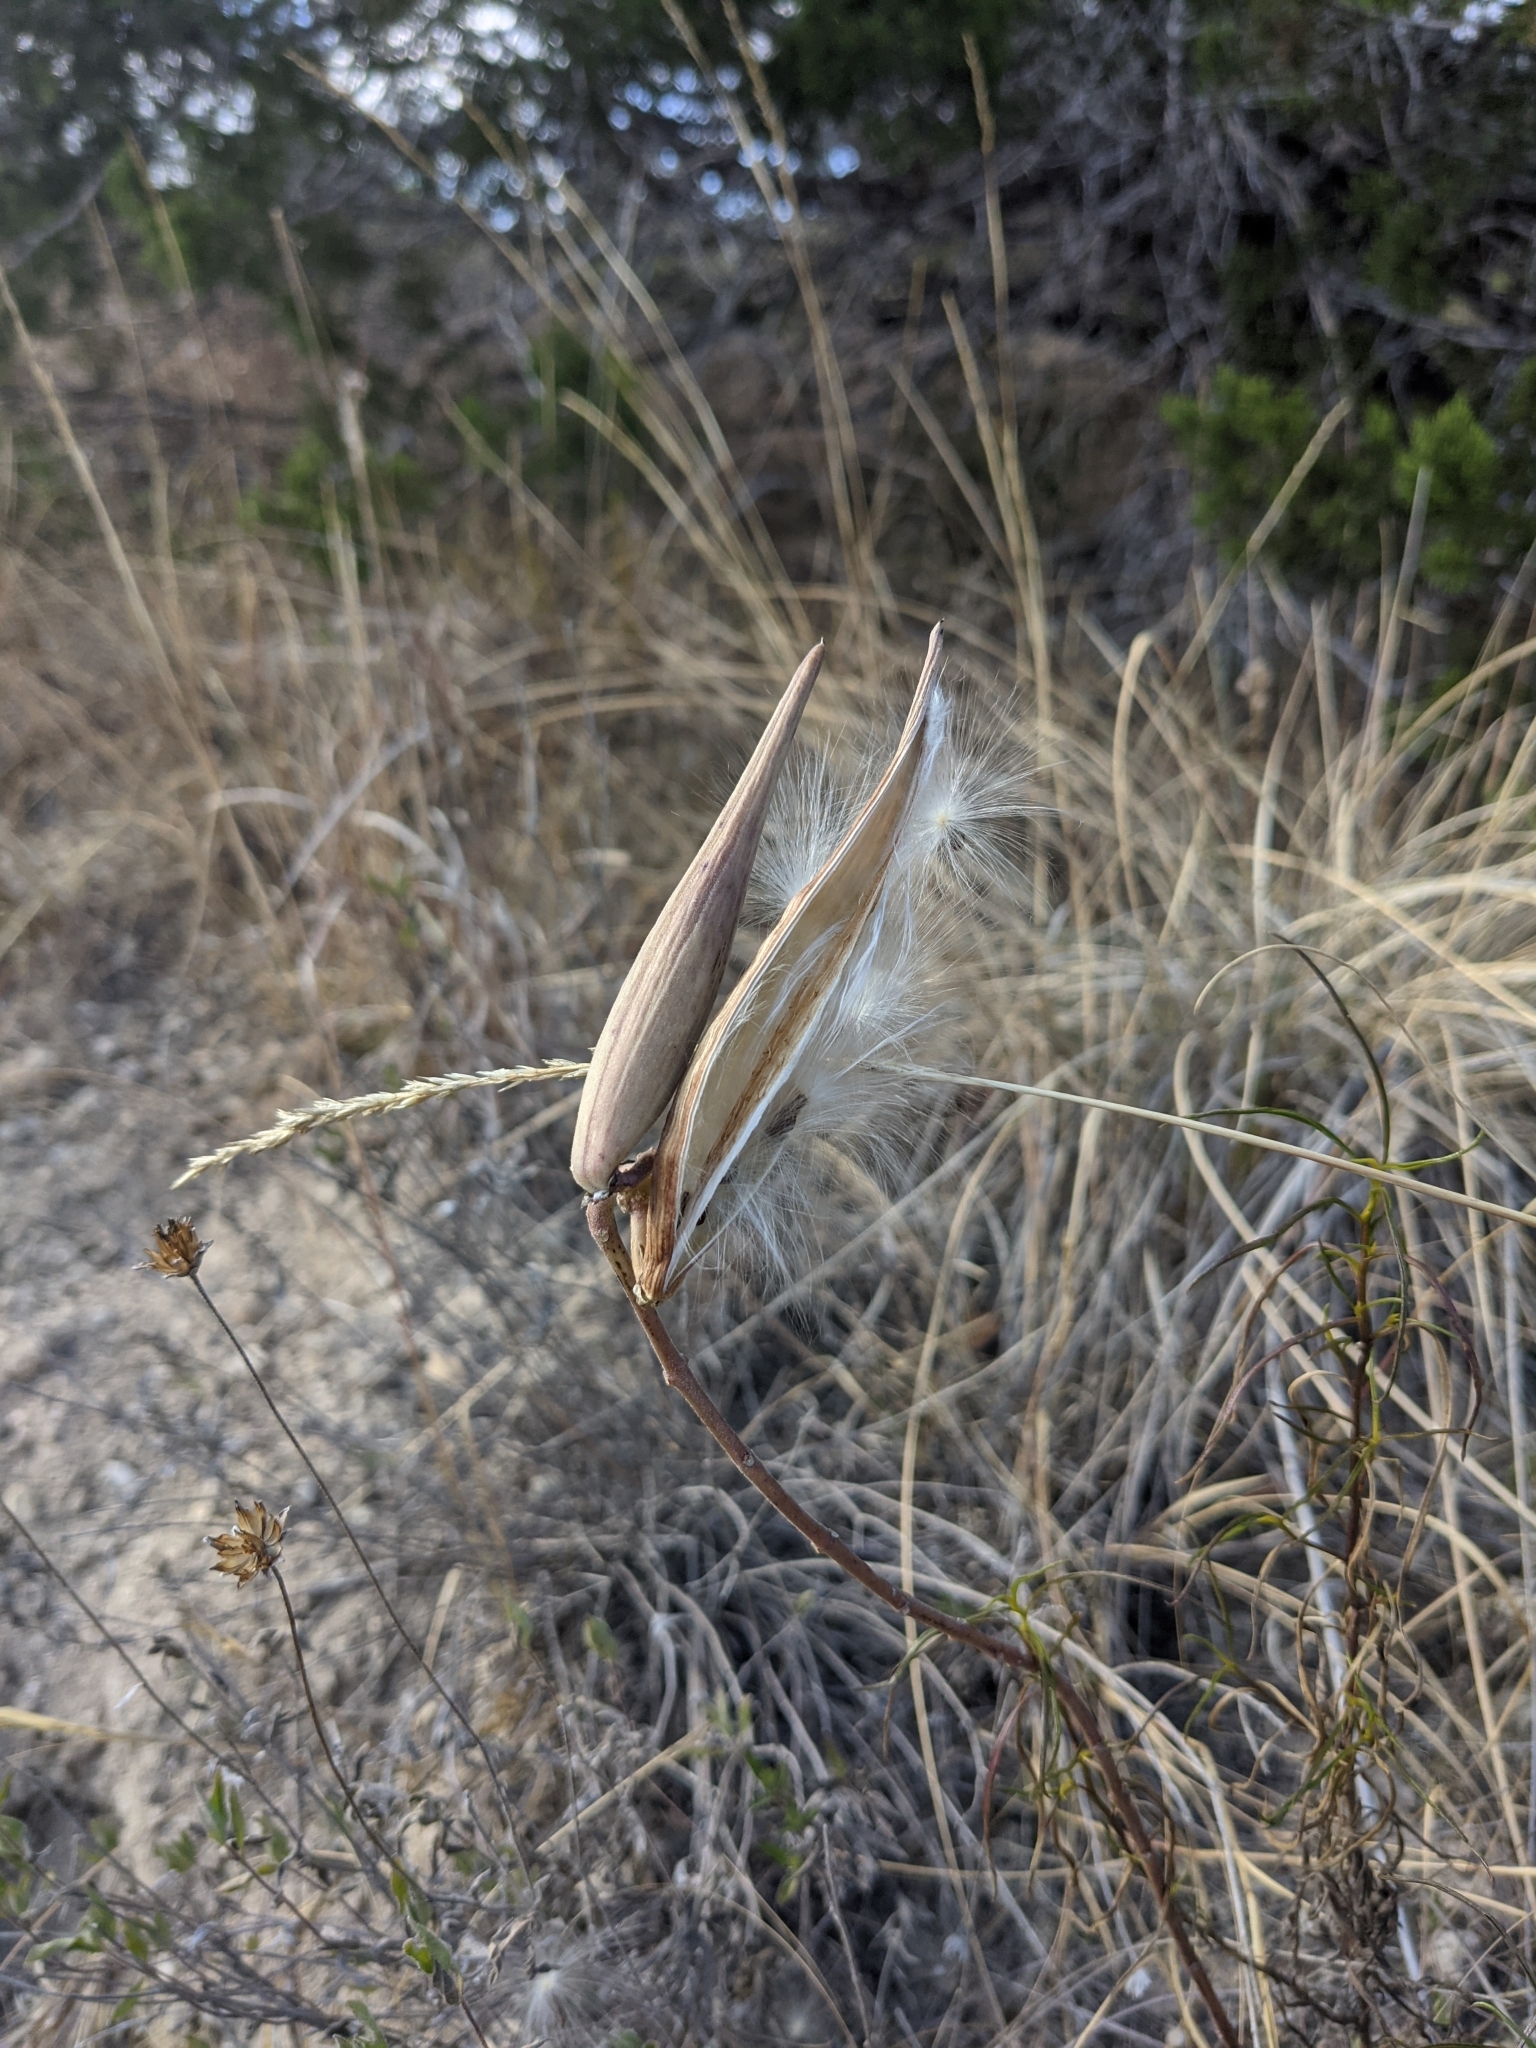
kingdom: Plantae
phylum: Tracheophyta
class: Magnoliopsida
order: Gentianales
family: Apocynaceae
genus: Asclepias
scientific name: Asclepias engelmanniana
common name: Engelmann's milkweed
